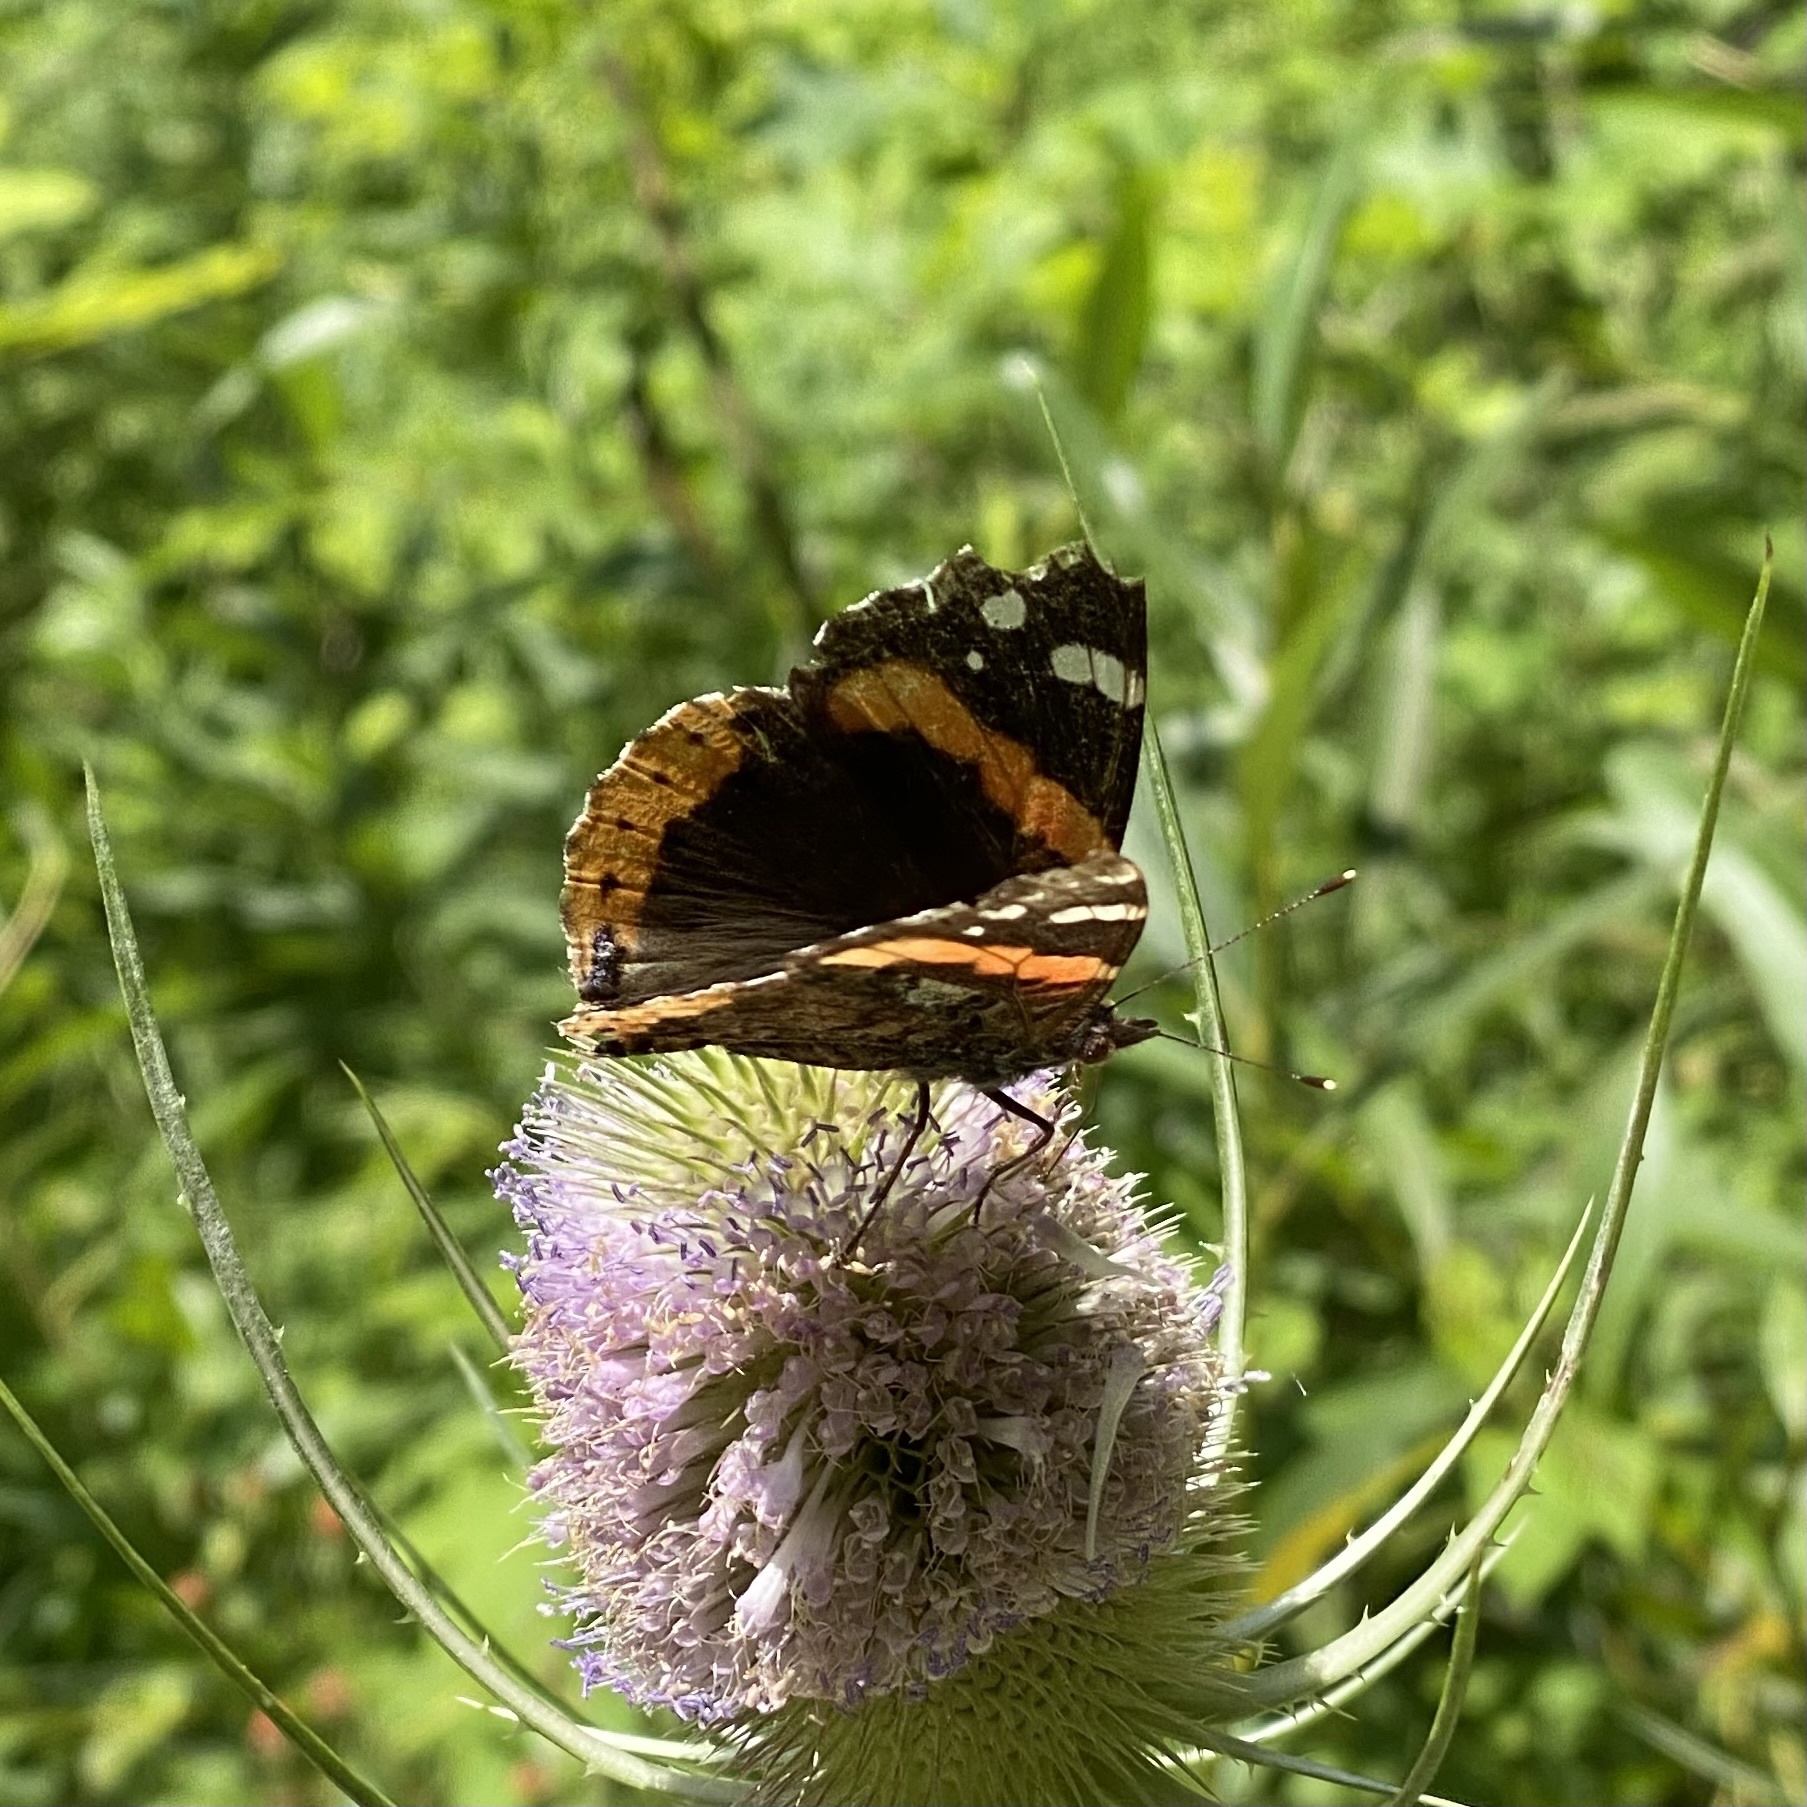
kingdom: Animalia
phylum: Arthropoda
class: Insecta
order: Lepidoptera
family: Nymphalidae
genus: Vanessa
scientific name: Vanessa atalanta
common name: Red admiral
